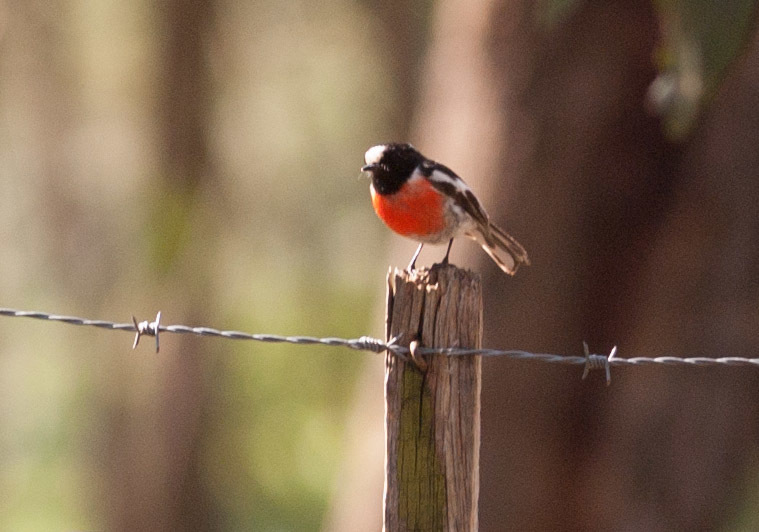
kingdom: Animalia
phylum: Chordata
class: Aves
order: Passeriformes
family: Petroicidae
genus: Petroica
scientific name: Petroica boodang
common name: Scarlet robin
